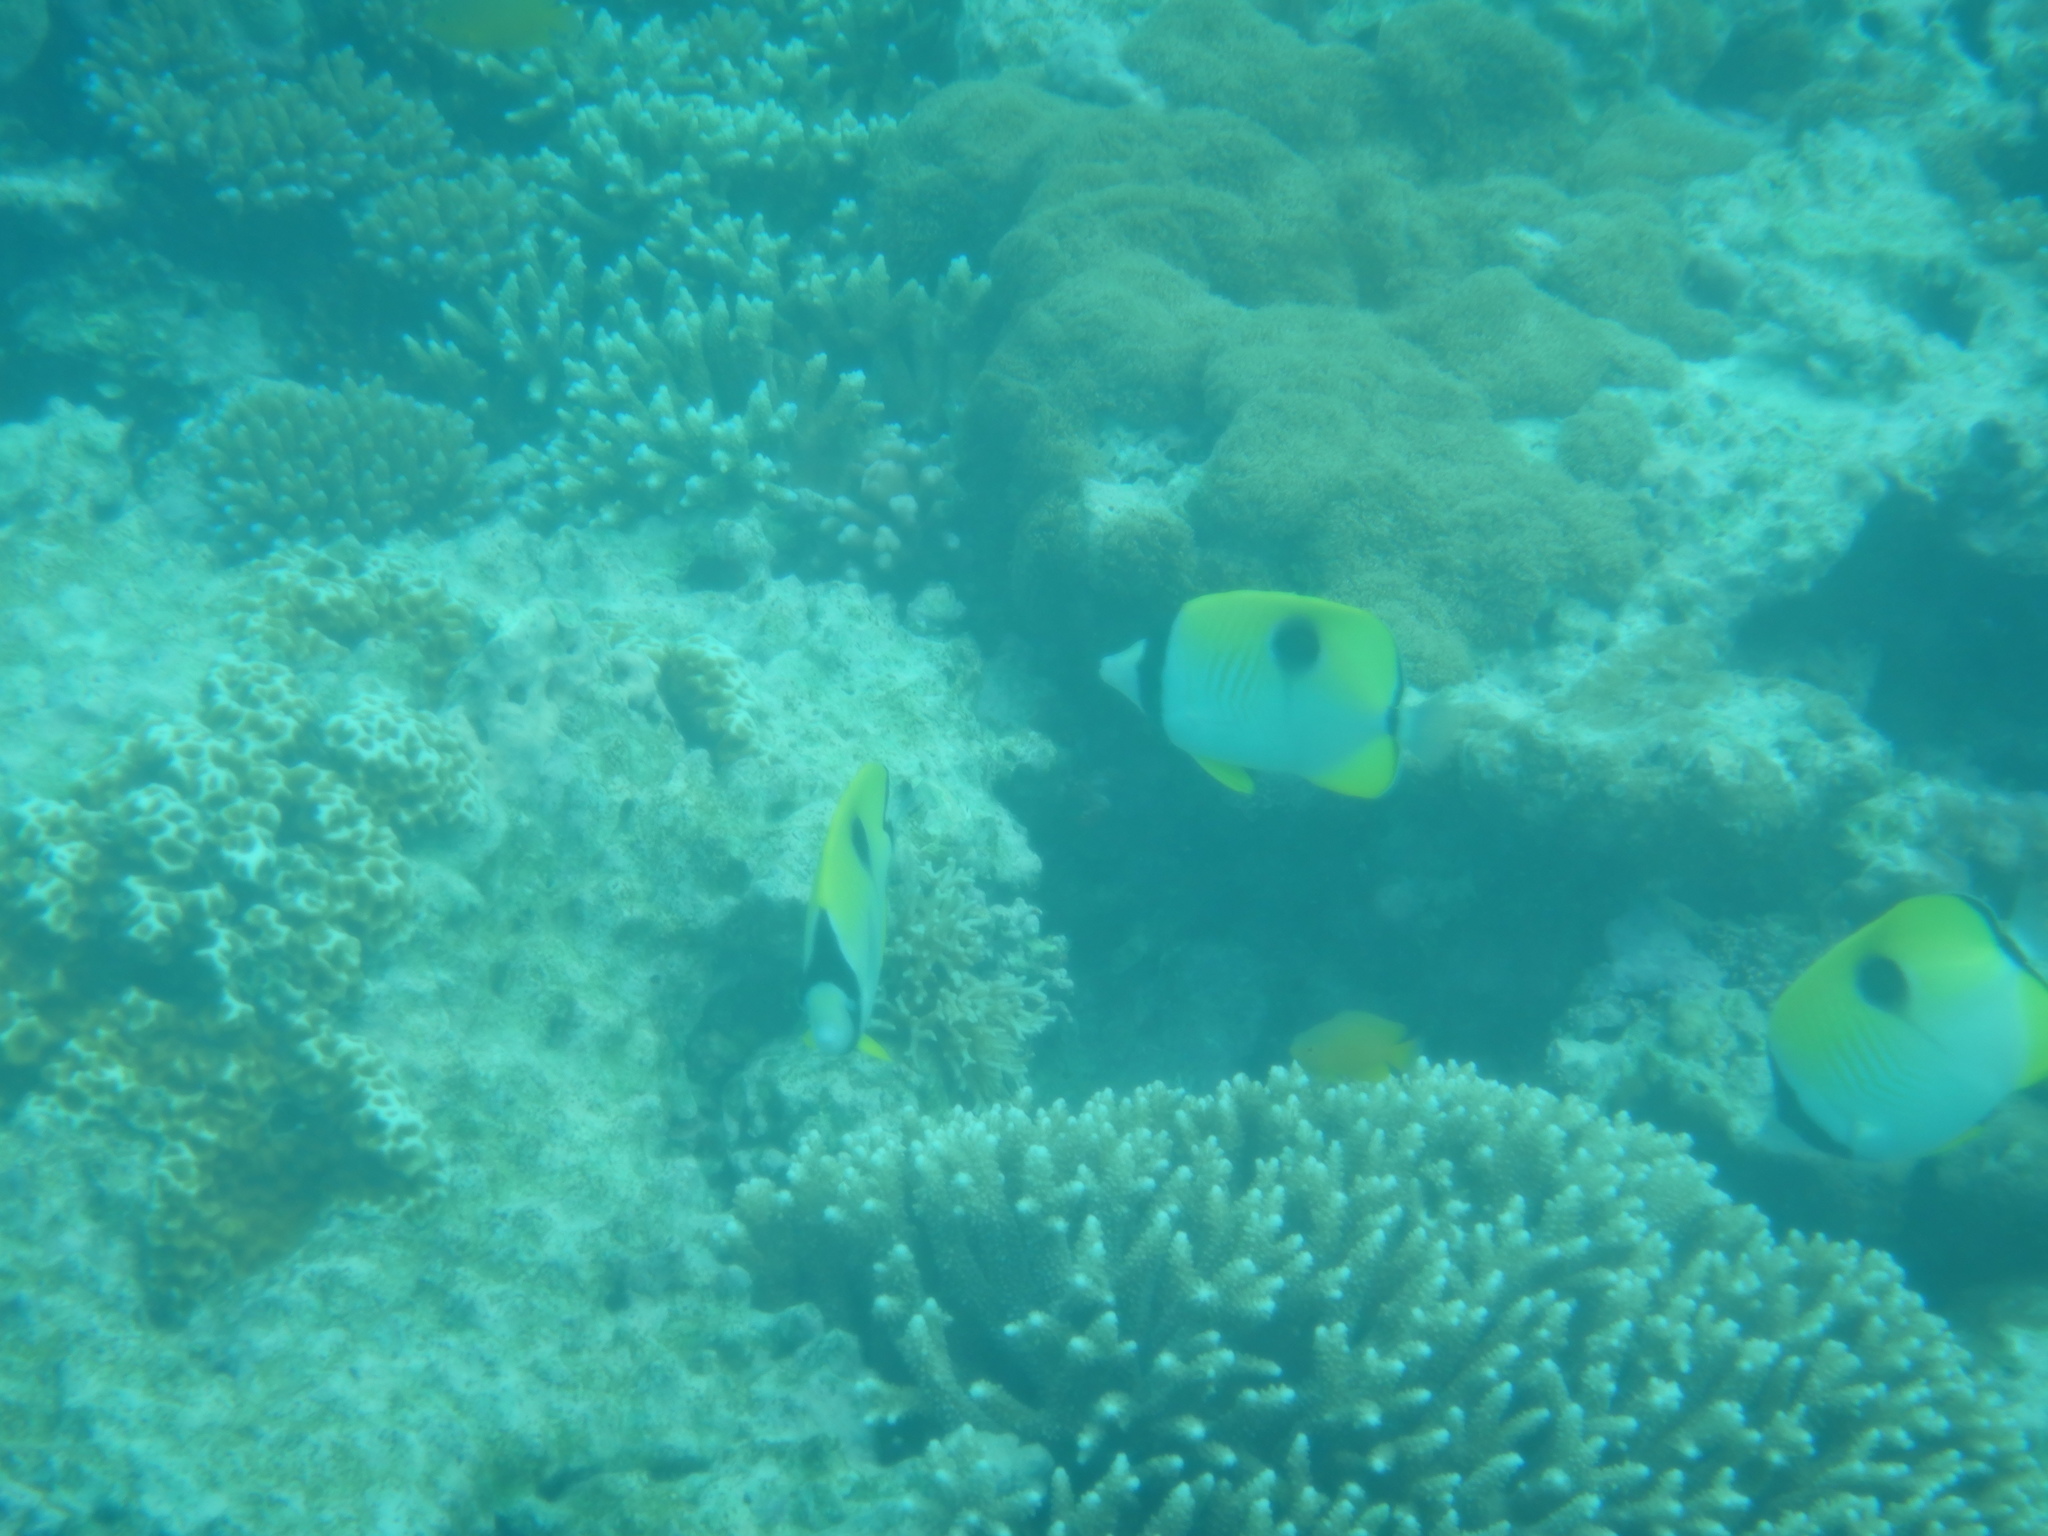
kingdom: Animalia
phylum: Chordata
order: Perciformes
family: Chaetodontidae
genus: Chaetodon
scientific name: Chaetodon unimaculatus
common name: Teardrop butterflyfish
